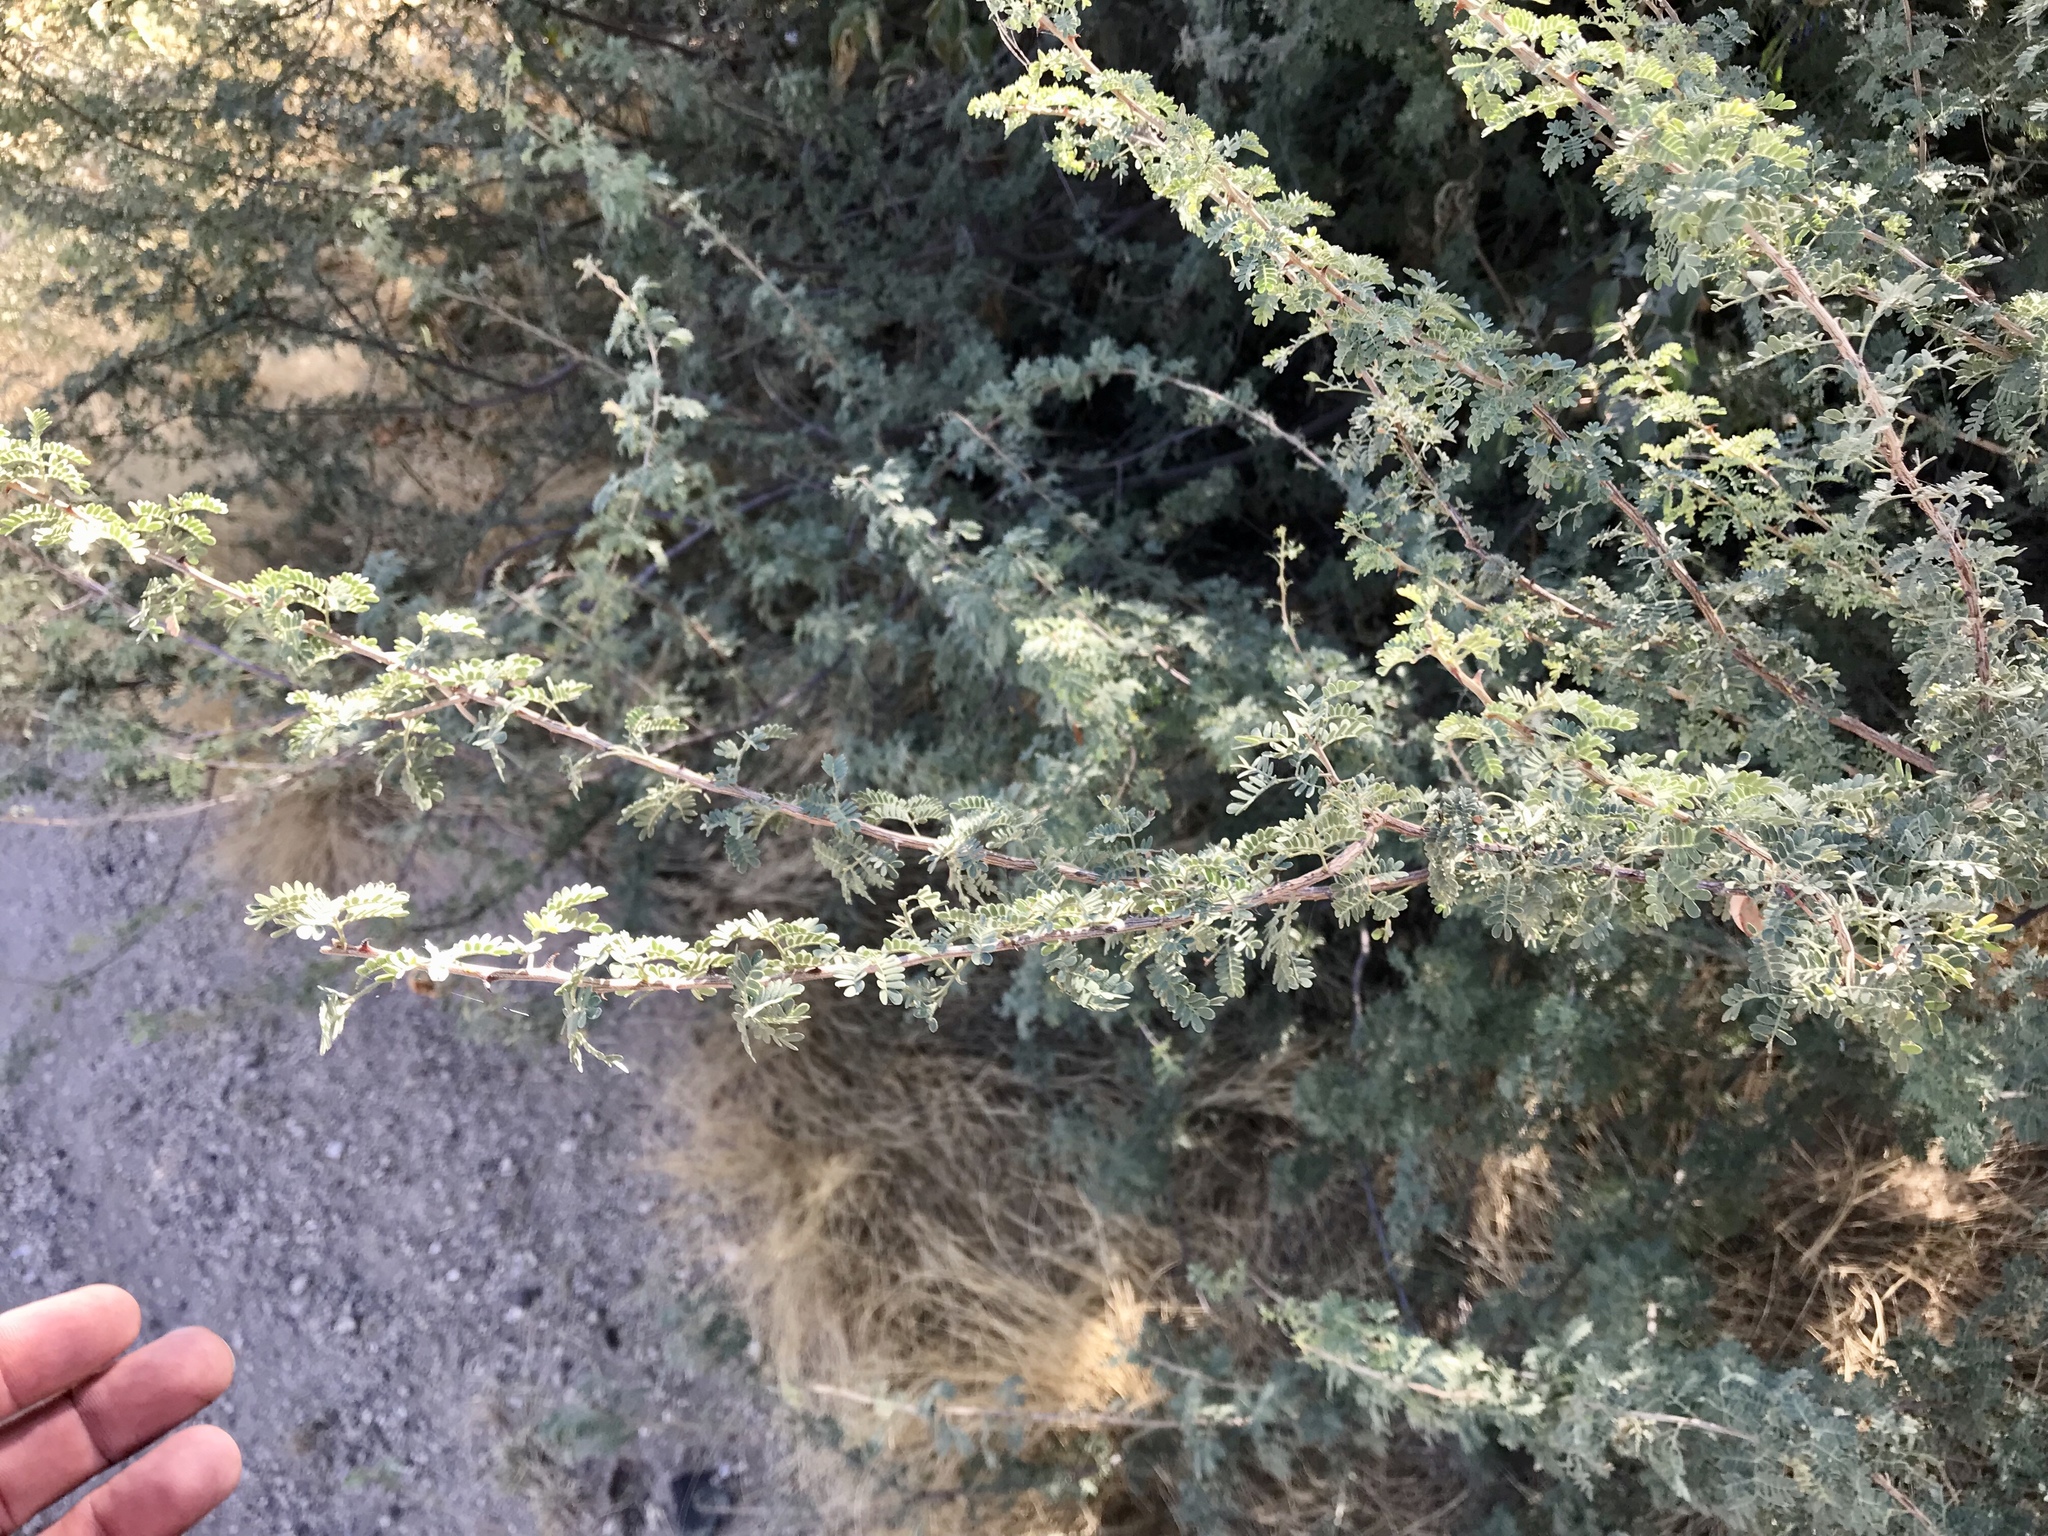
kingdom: Plantae
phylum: Tracheophyta
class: Magnoliopsida
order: Fabales
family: Fabaceae
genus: Senegalia
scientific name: Senegalia greggii
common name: Texas-mimosa
